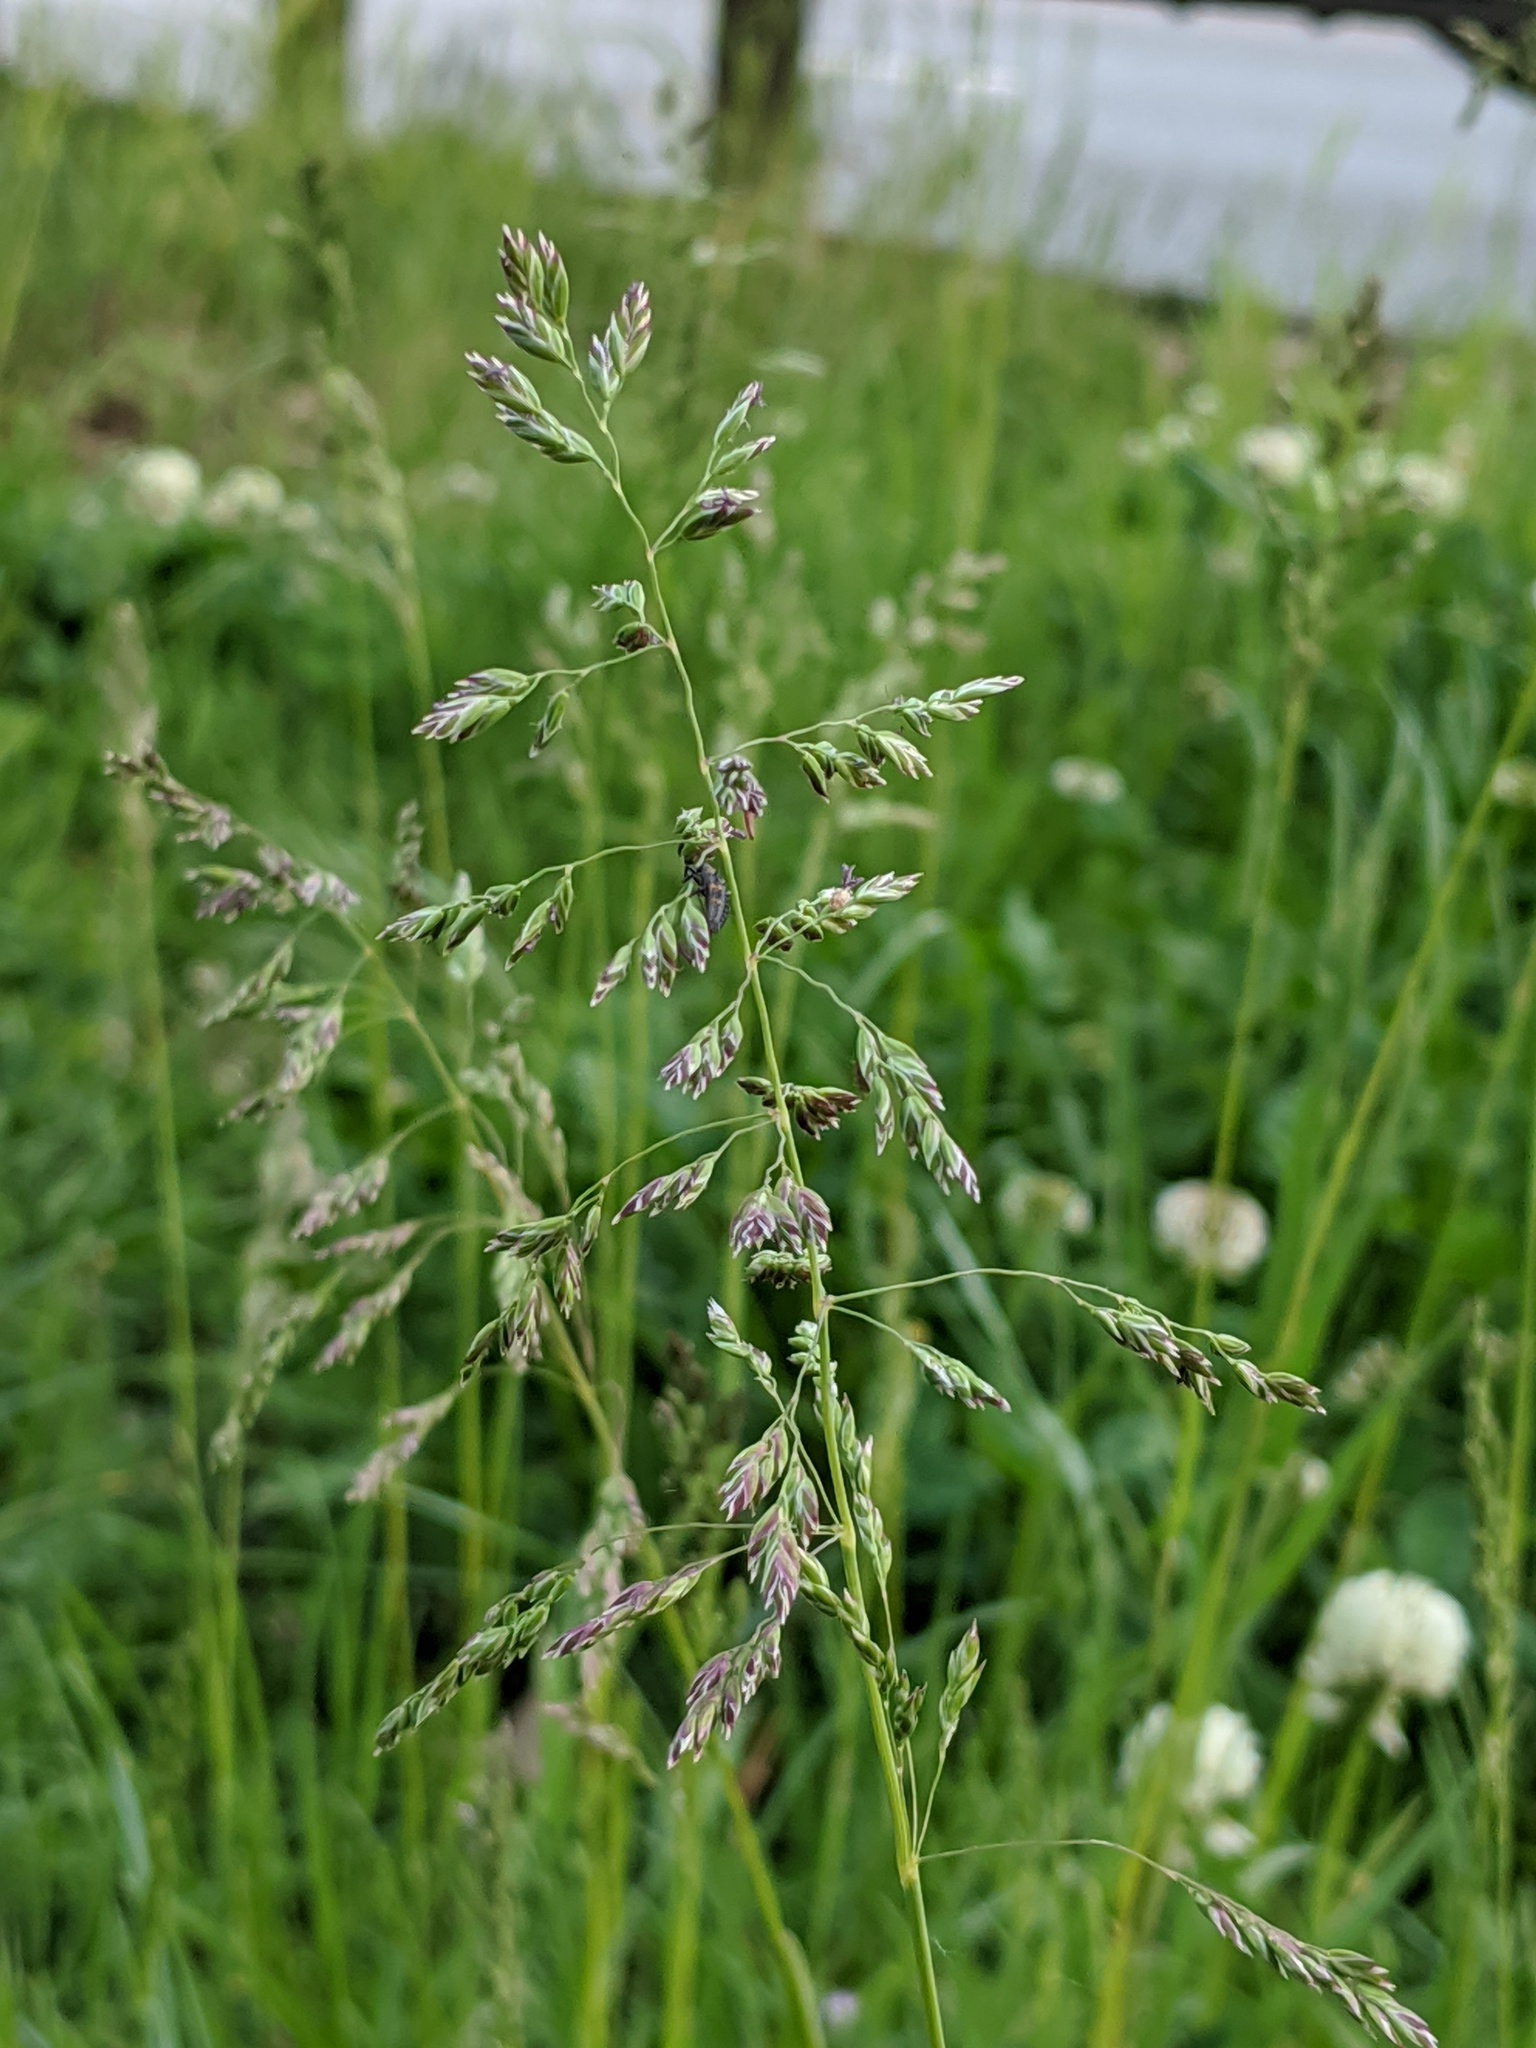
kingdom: Plantae
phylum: Tracheophyta
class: Liliopsida
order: Poales
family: Poaceae
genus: Poa
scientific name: Poa pratensis
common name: Kentucky bluegrass
